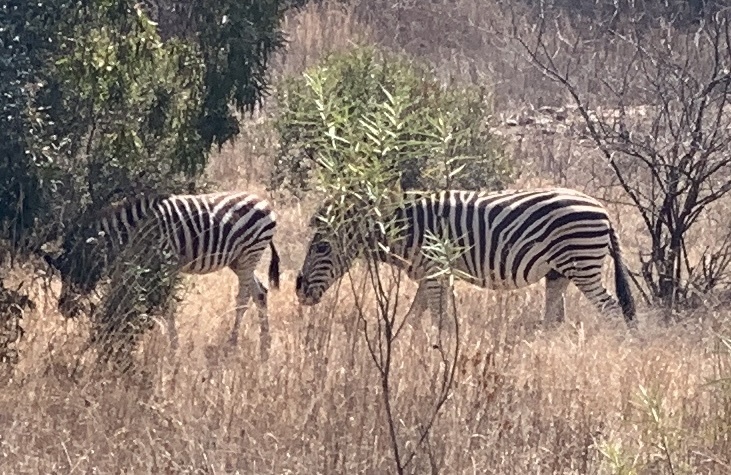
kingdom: Animalia
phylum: Chordata
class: Mammalia
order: Perissodactyla
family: Equidae
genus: Equus
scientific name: Equus quagga
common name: Plains zebra
